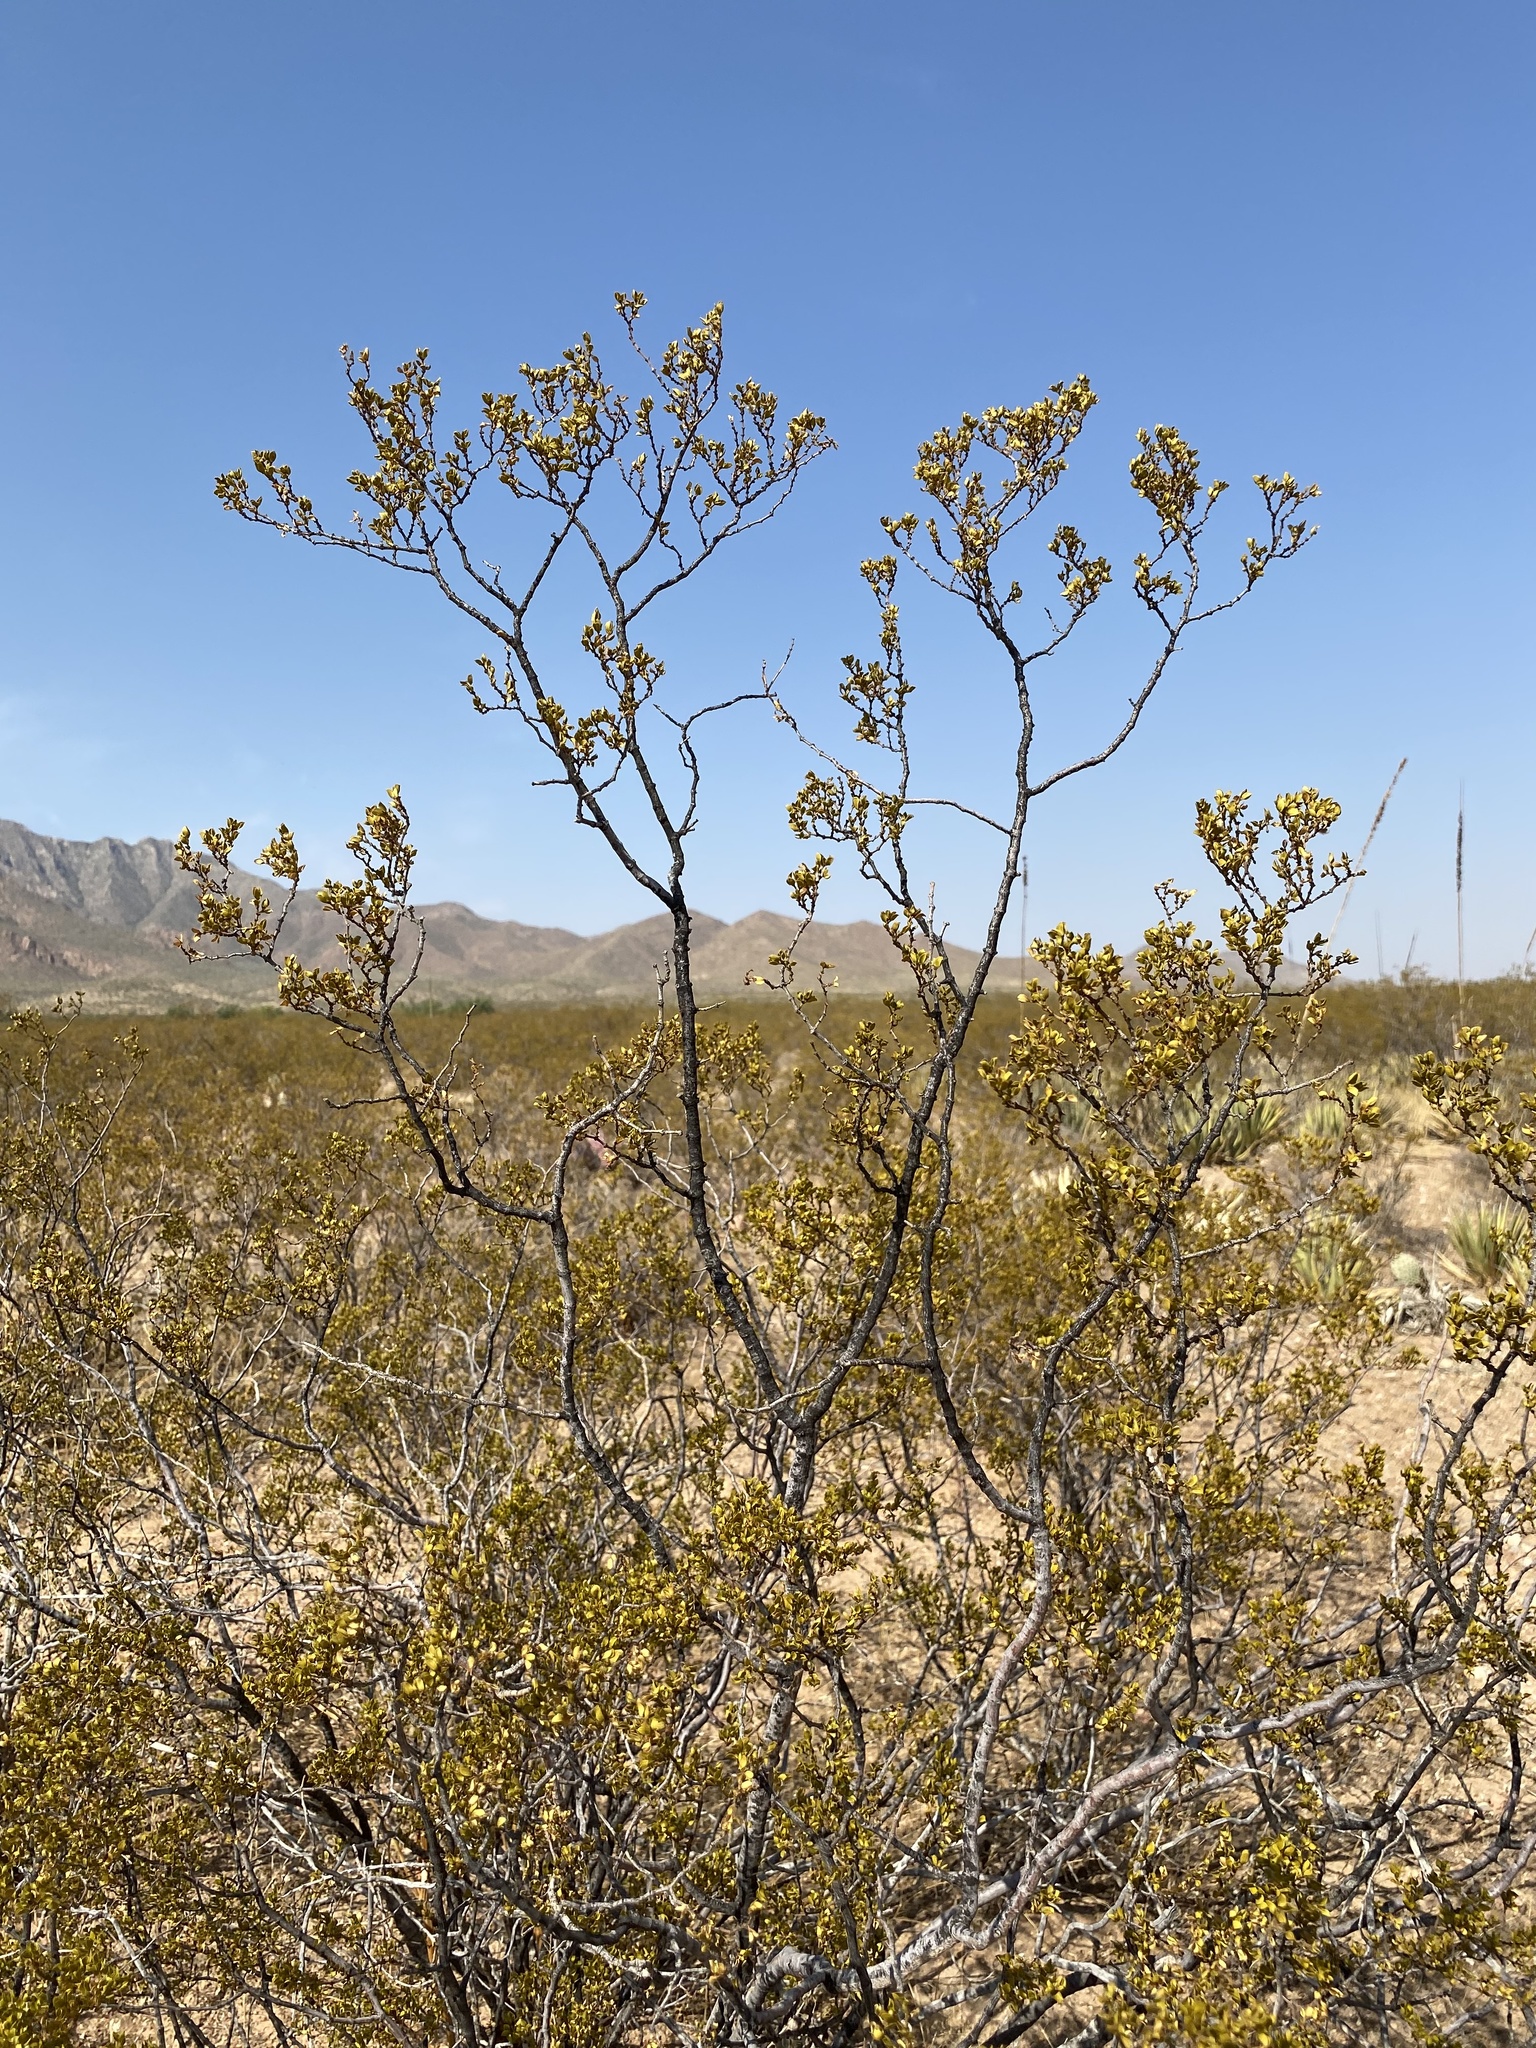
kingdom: Plantae
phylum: Tracheophyta
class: Magnoliopsida
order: Zygophyllales
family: Zygophyllaceae
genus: Larrea
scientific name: Larrea tridentata
